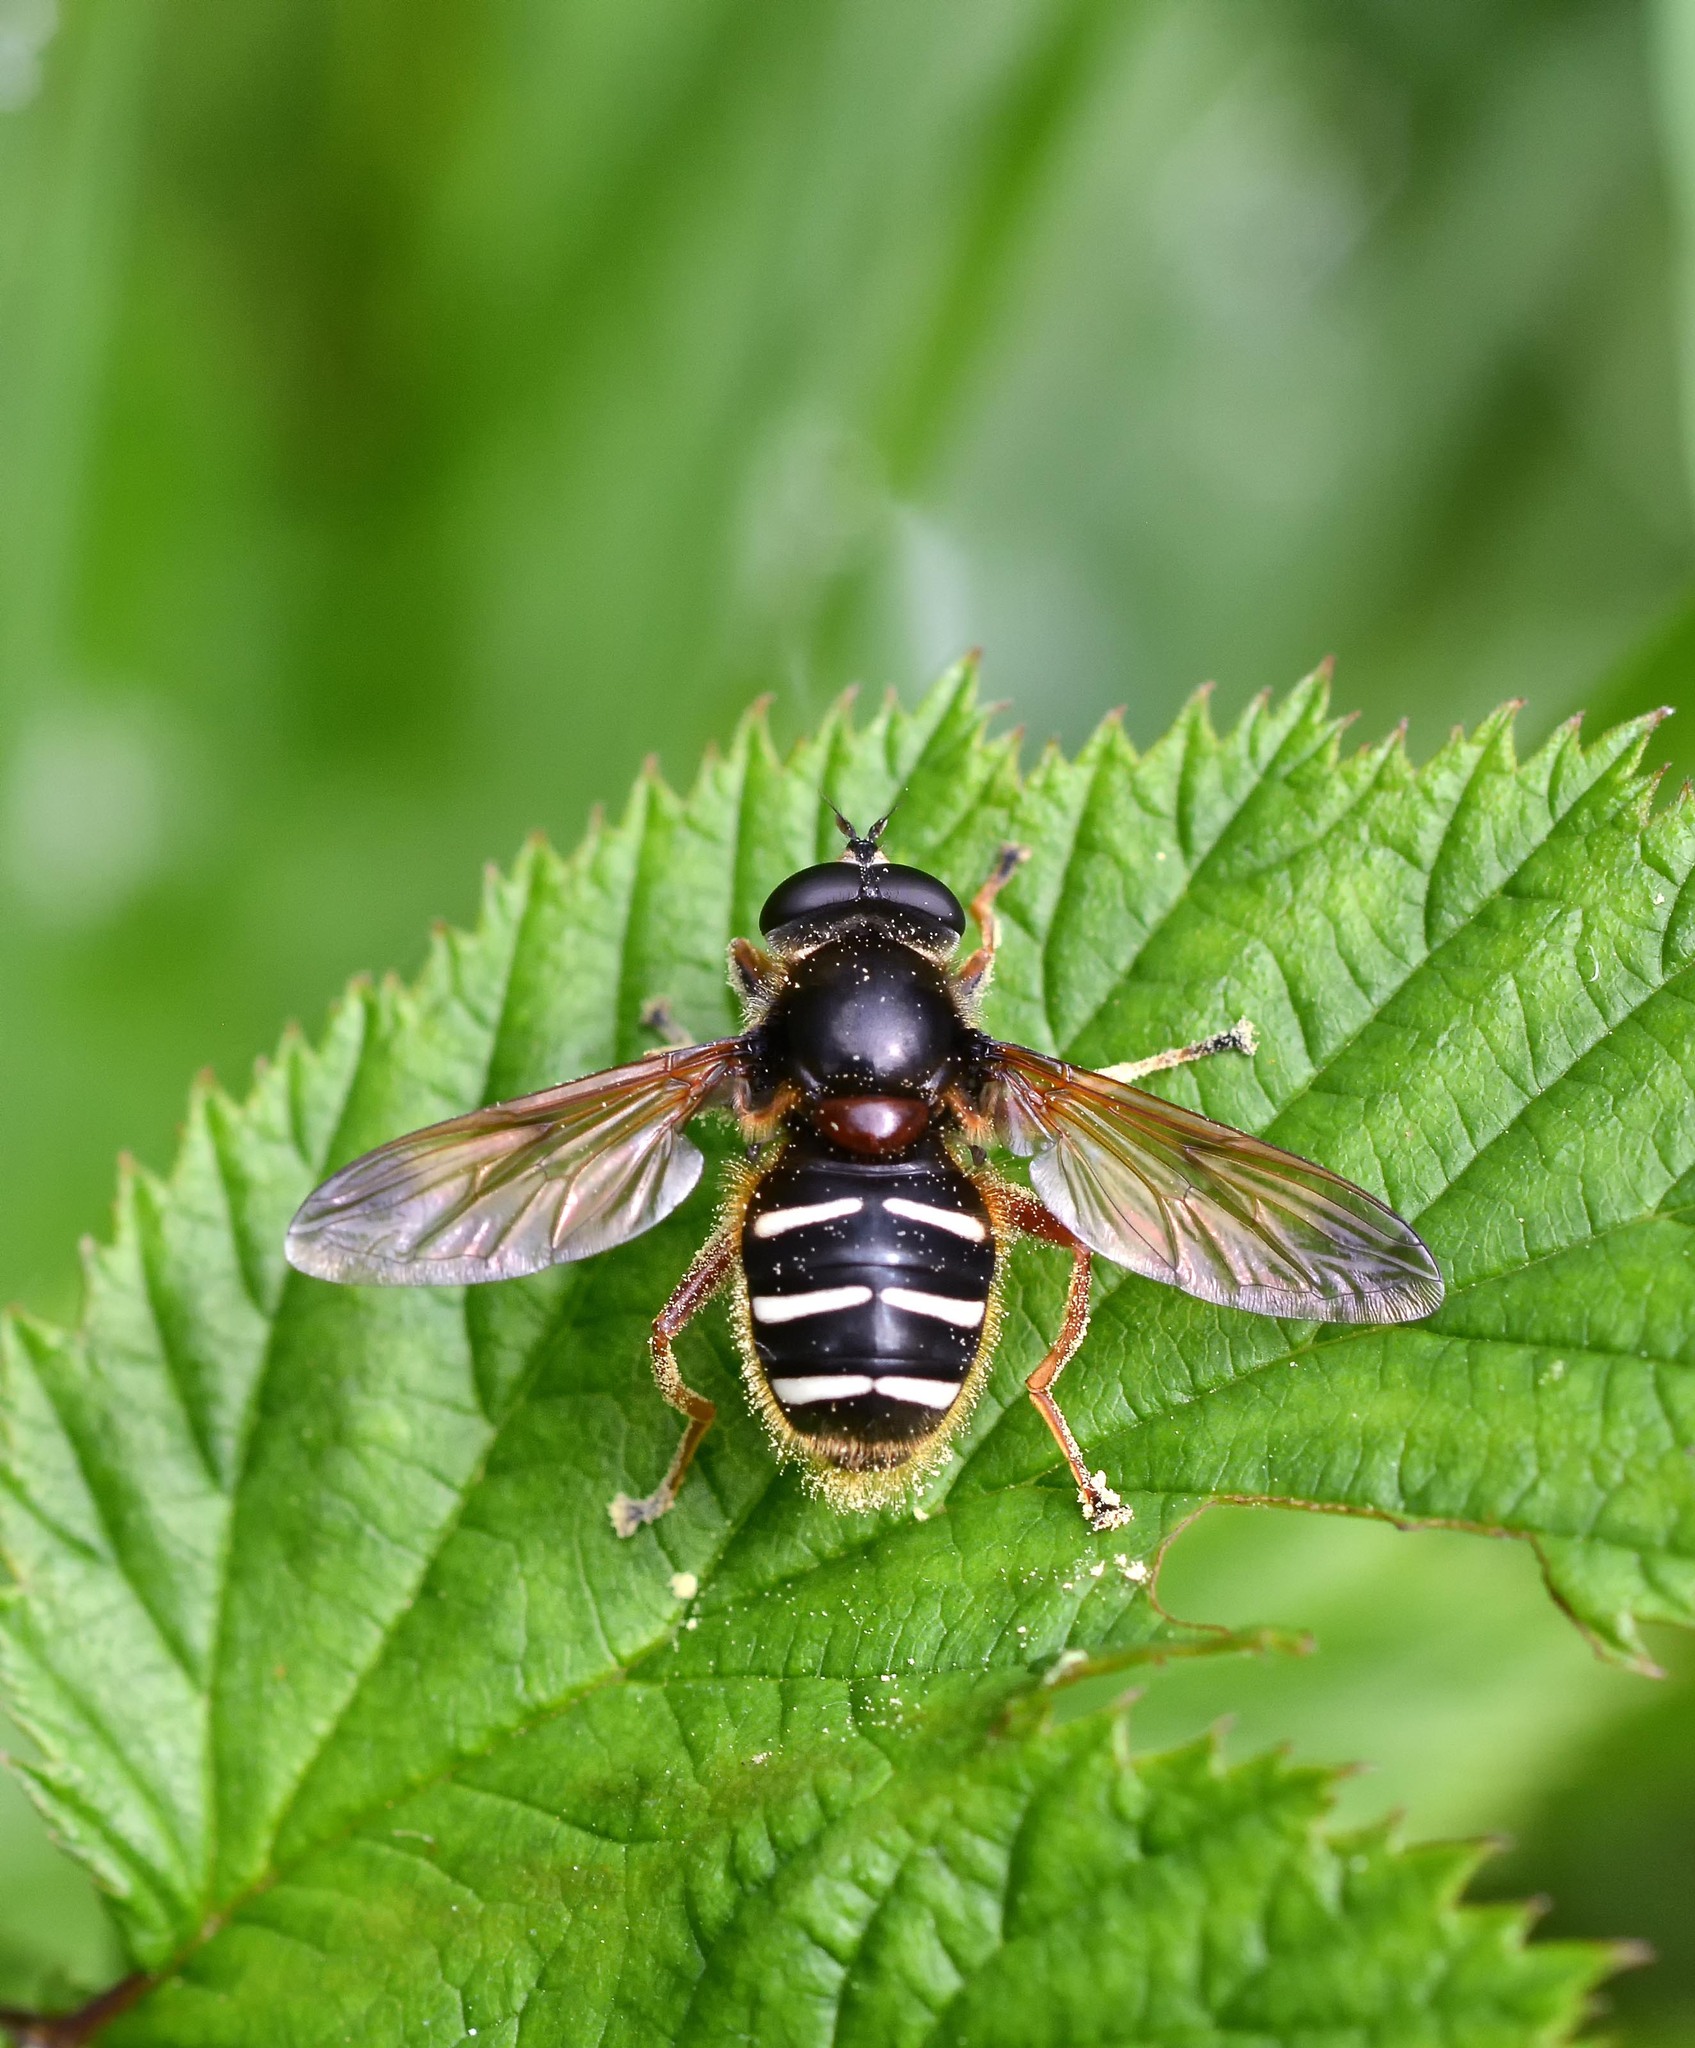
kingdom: Animalia
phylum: Arthropoda
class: Insecta
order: Diptera
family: Syrphidae
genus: Sericomyia
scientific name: Sericomyia lappona
